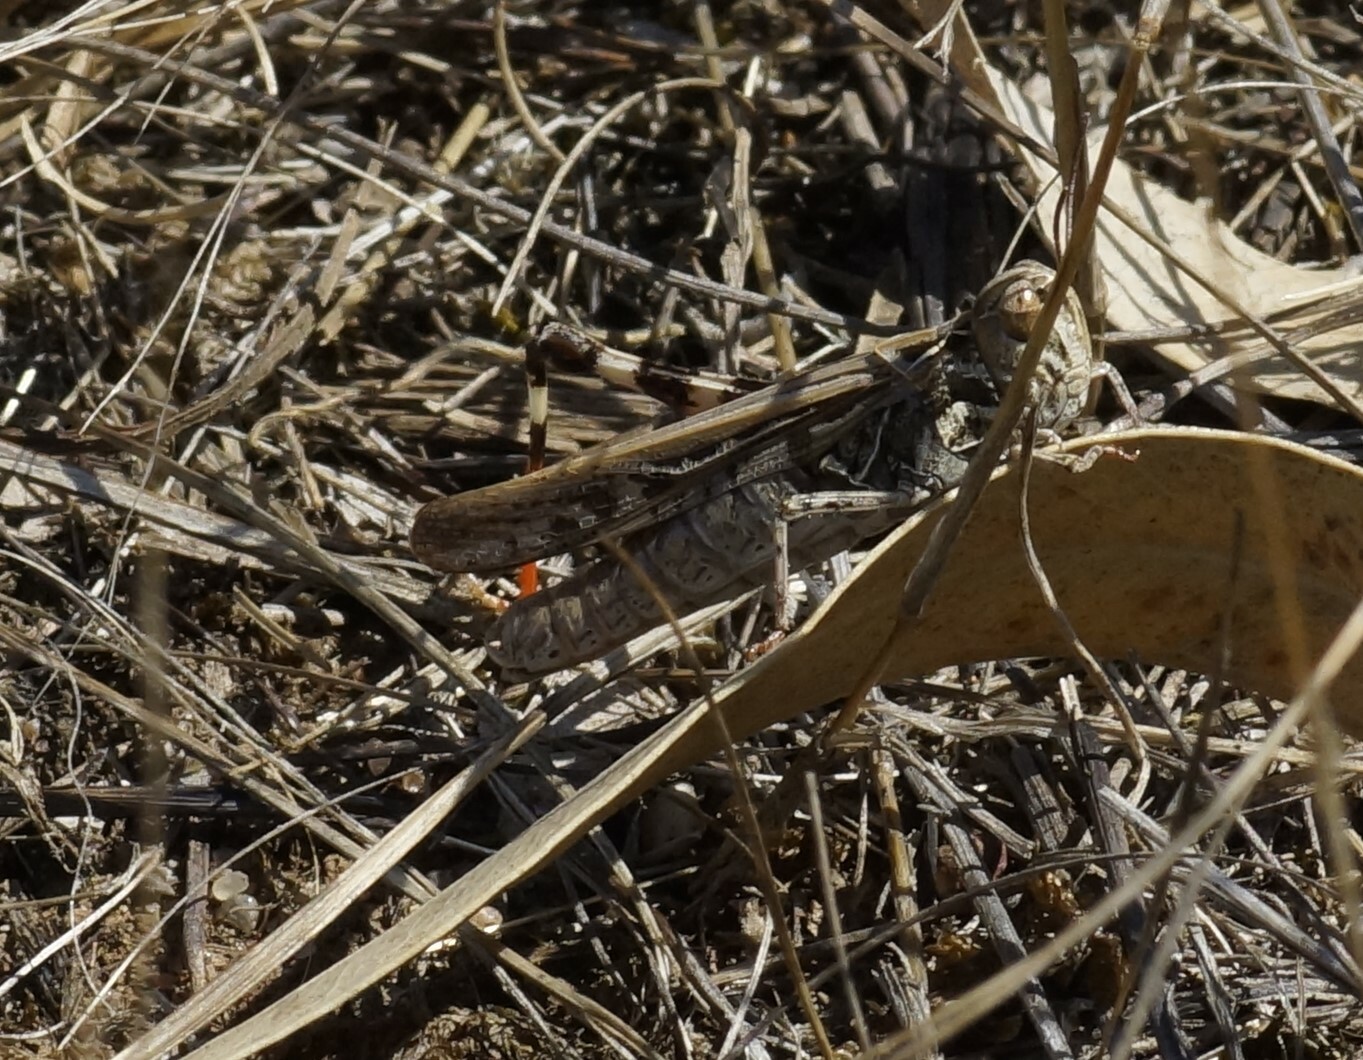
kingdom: Animalia
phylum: Arthropoda
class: Insecta
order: Orthoptera
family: Acrididae
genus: Austroicetes
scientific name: Austroicetes vulgaris
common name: Southeastern austroicetes
